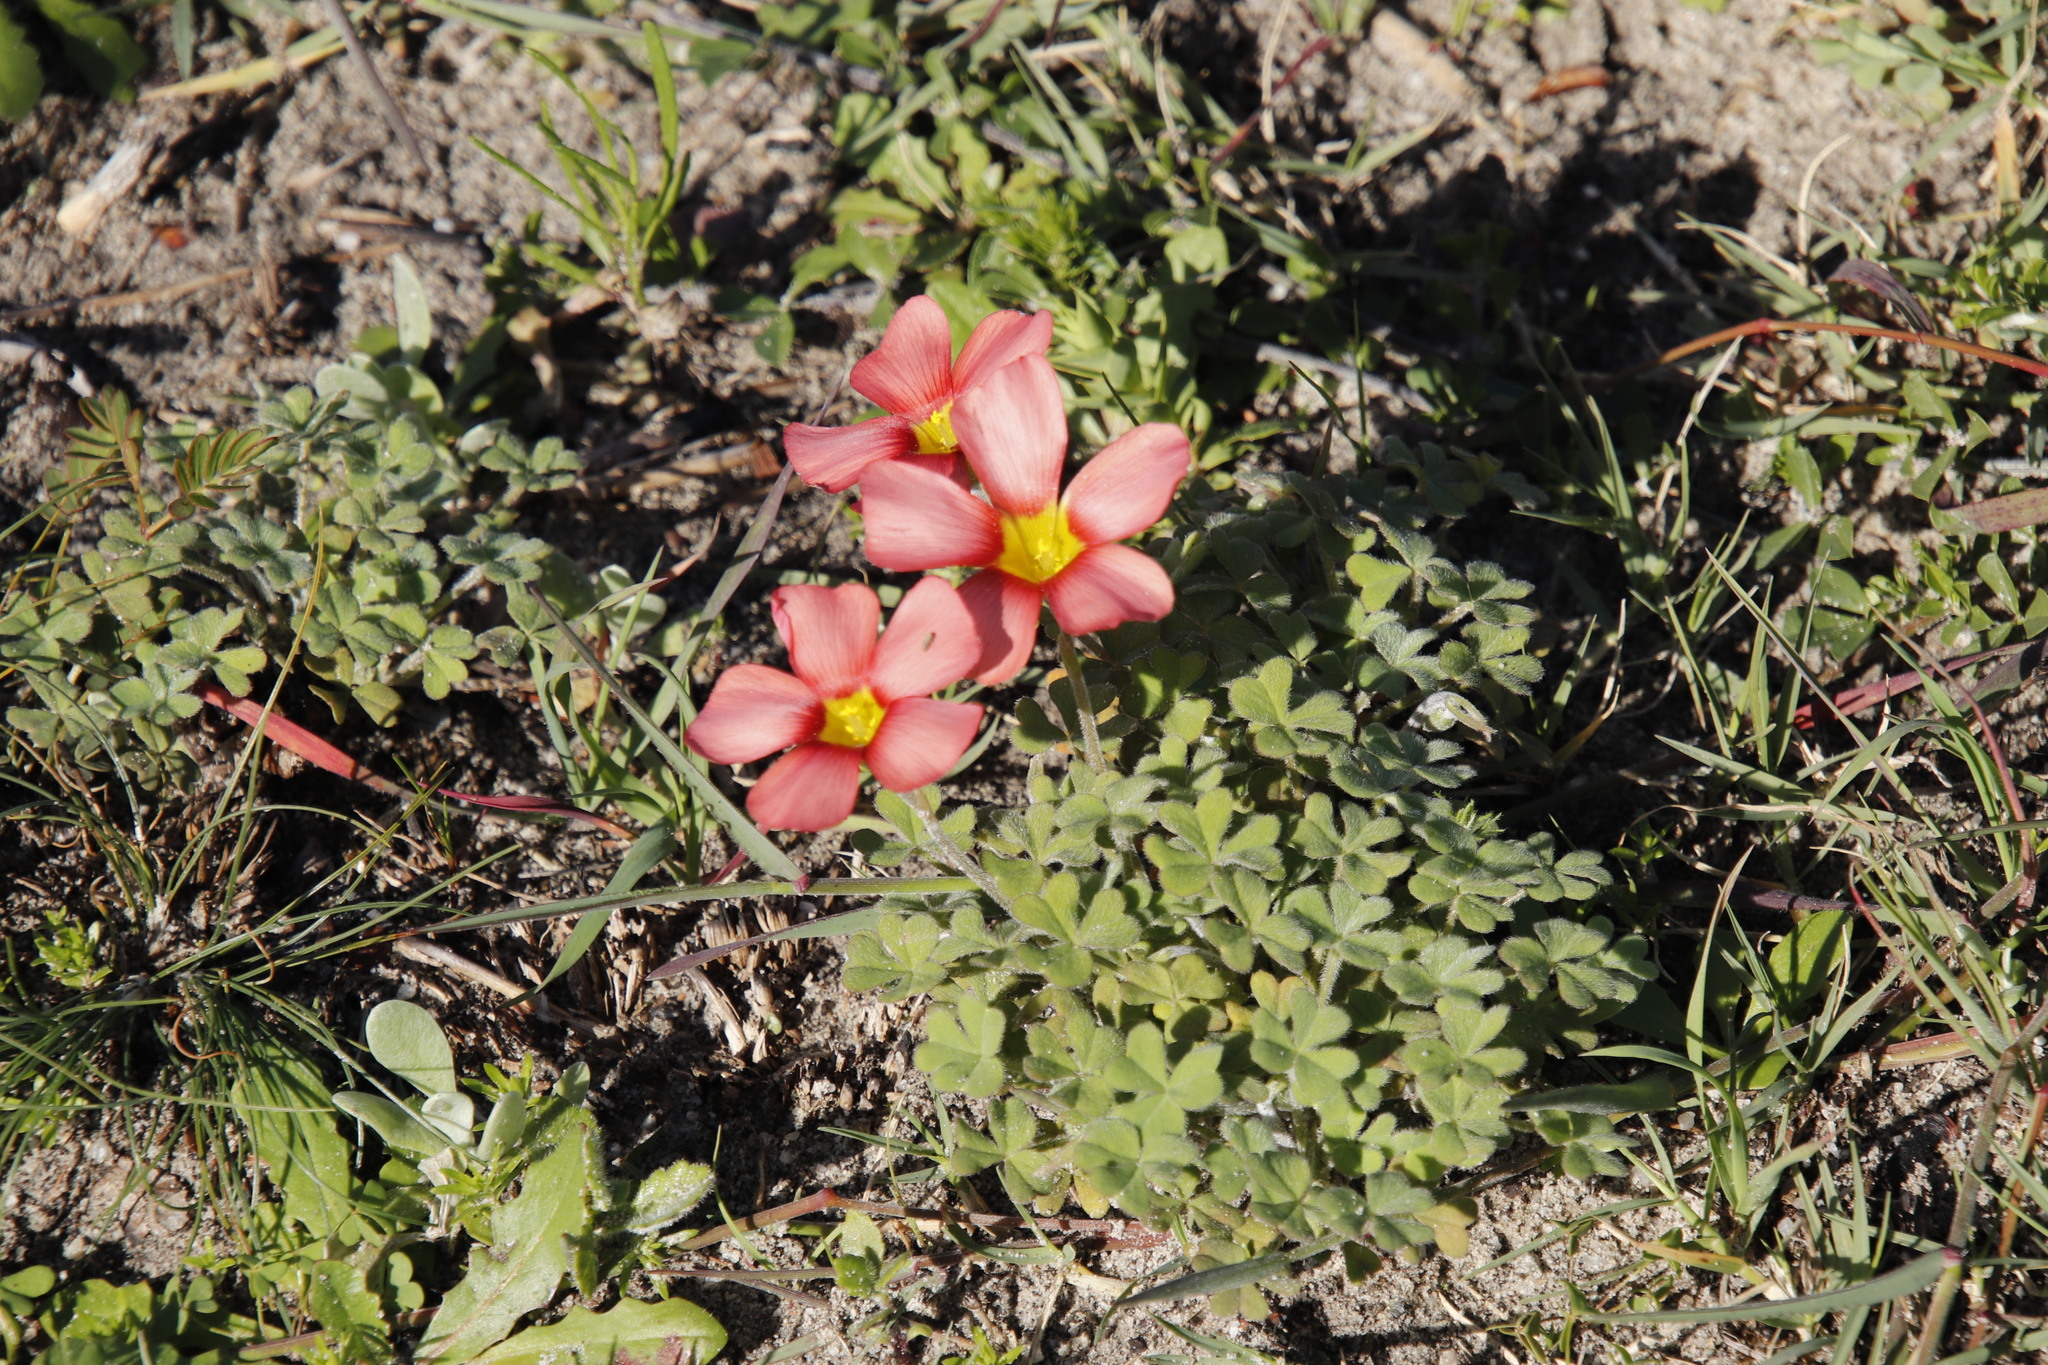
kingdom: Plantae
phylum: Tracheophyta
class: Magnoliopsida
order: Oxalidales
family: Oxalidaceae
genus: Oxalis
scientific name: Oxalis obtusa
